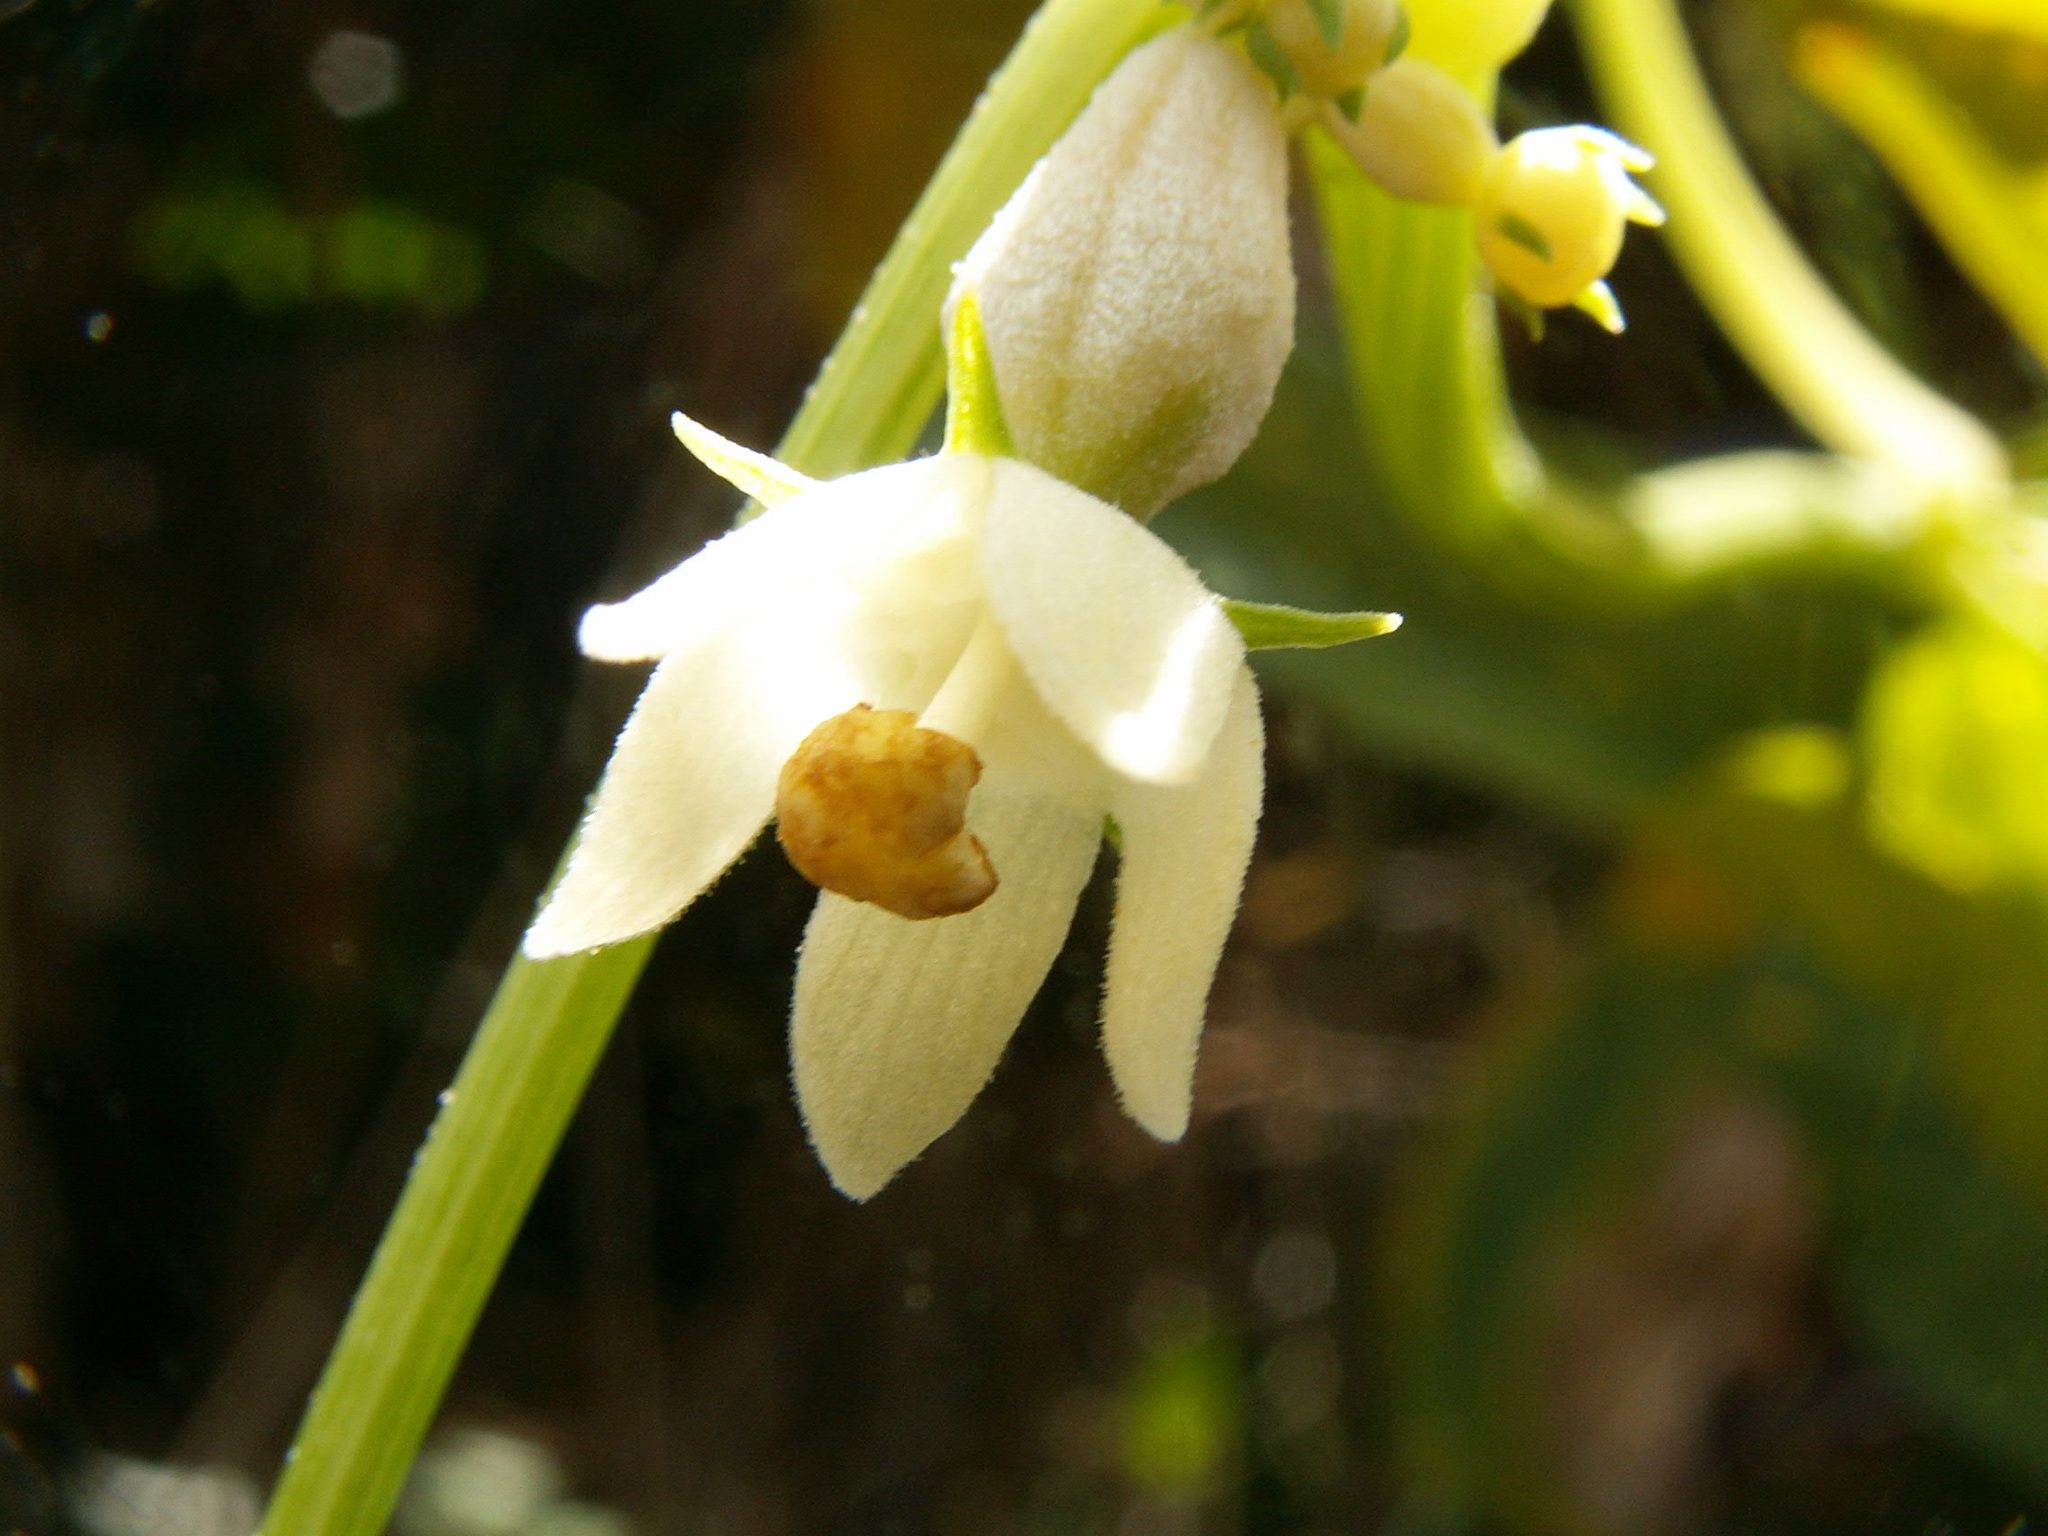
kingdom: Plantae
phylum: Tracheophyta
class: Magnoliopsida
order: Cucurbitales
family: Cucurbitaceae
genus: Sechium
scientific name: Sechium edule
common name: Chayote
